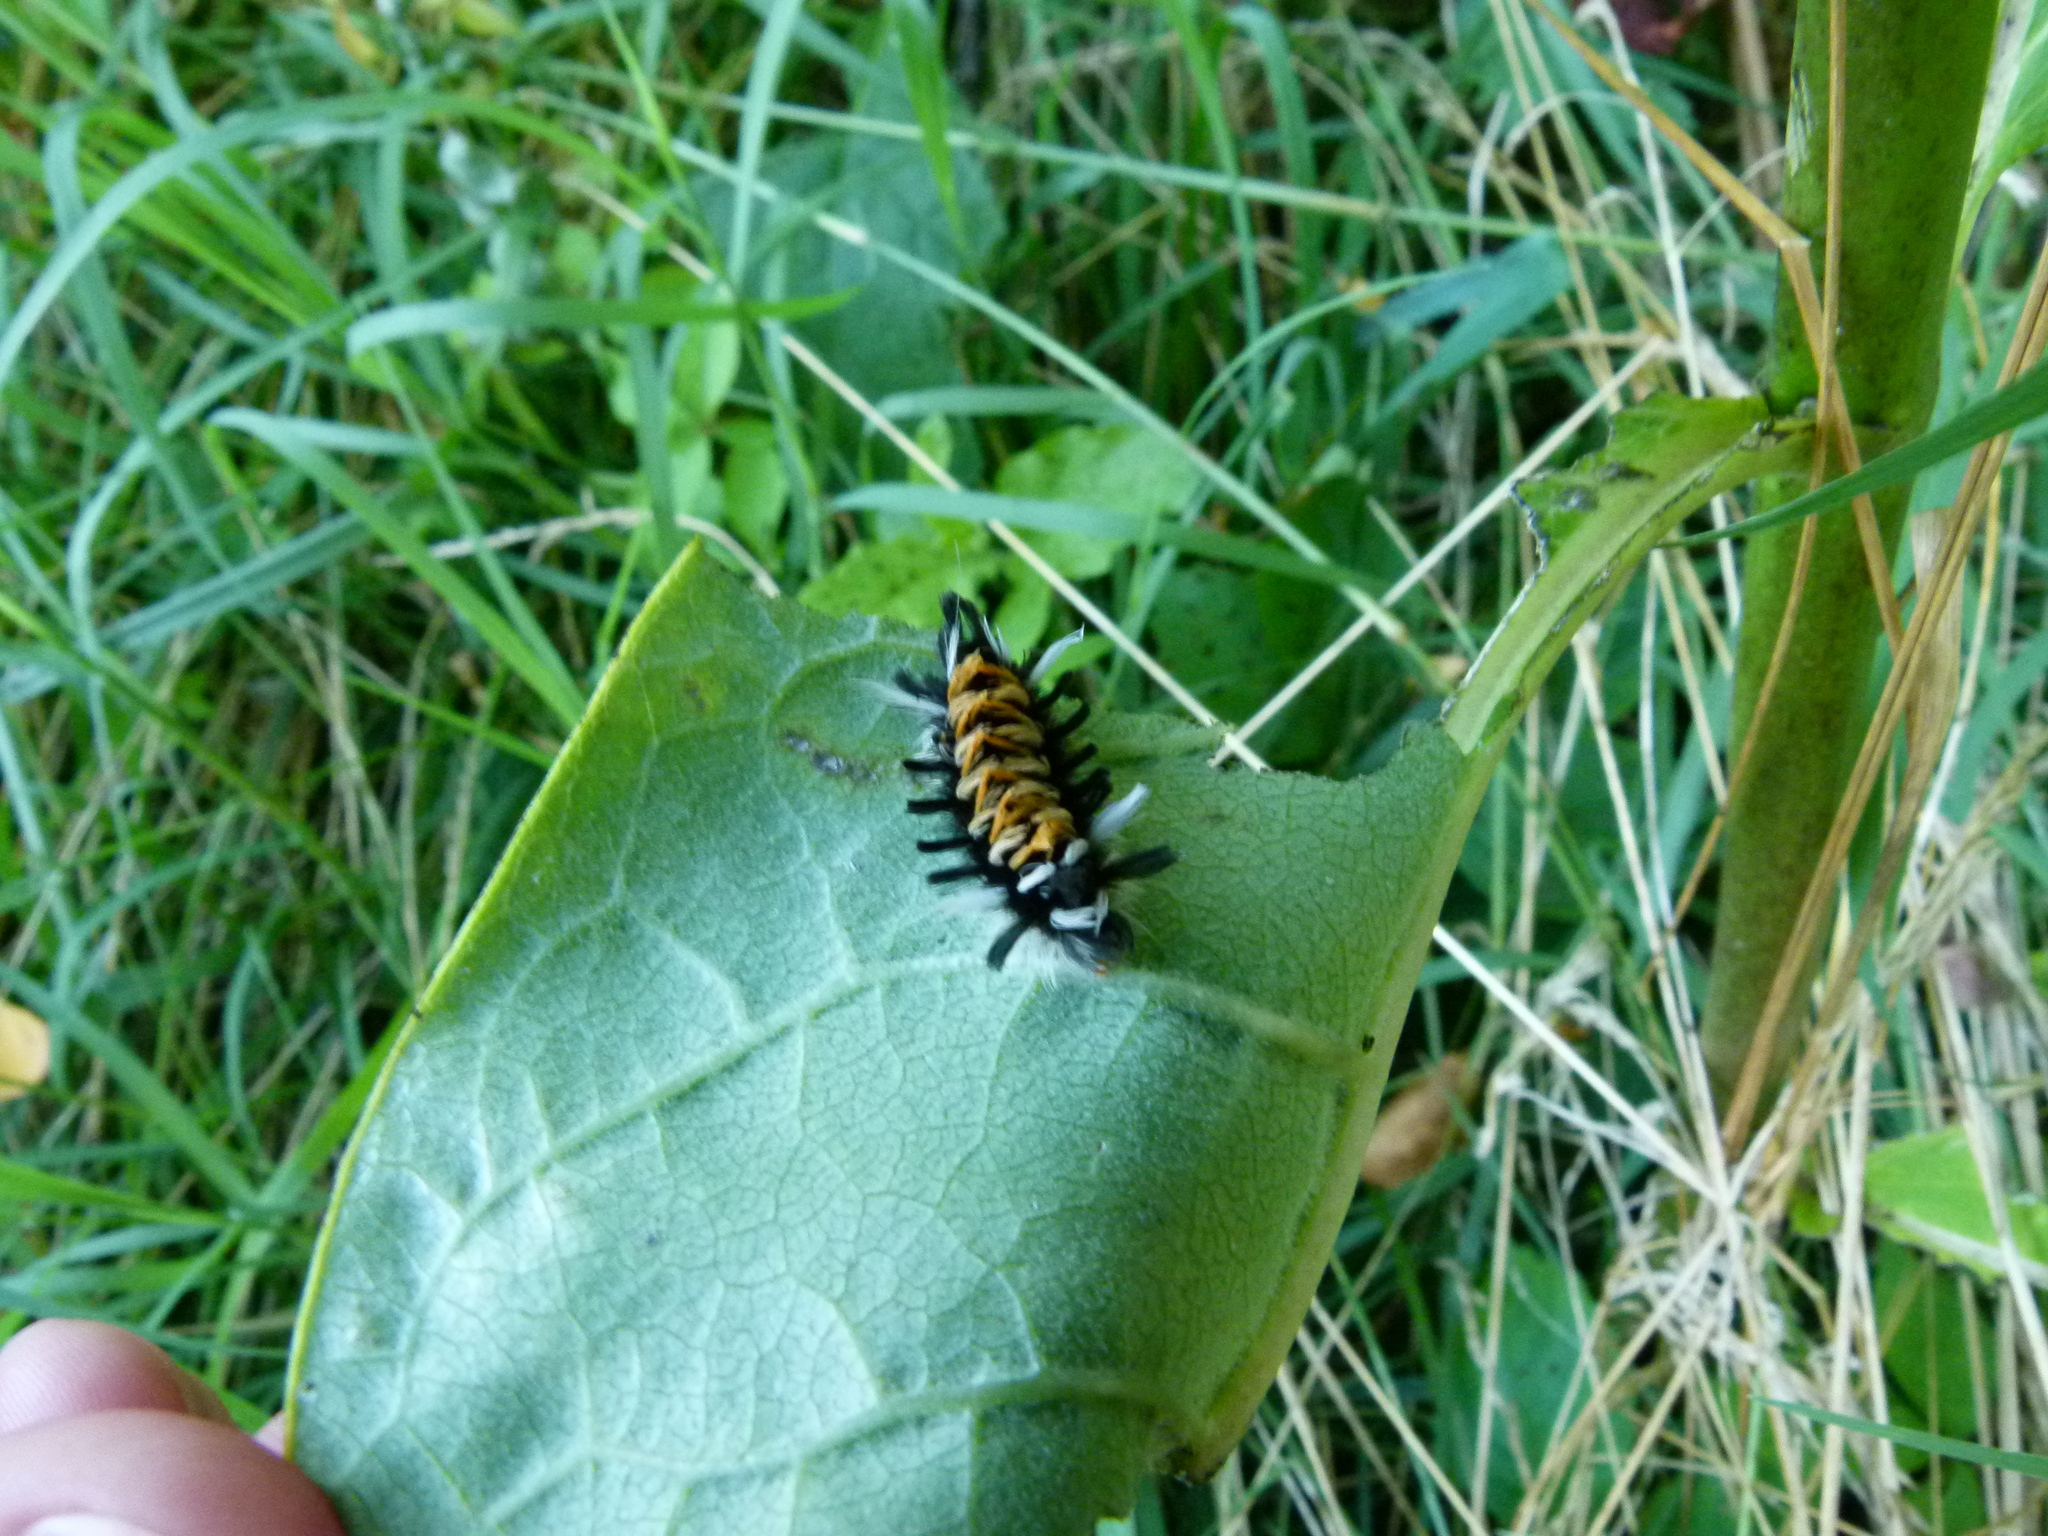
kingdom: Animalia
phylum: Arthropoda
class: Insecta
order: Lepidoptera
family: Erebidae
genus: Euchaetes
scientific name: Euchaetes egle
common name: Milkweed tussock moth
